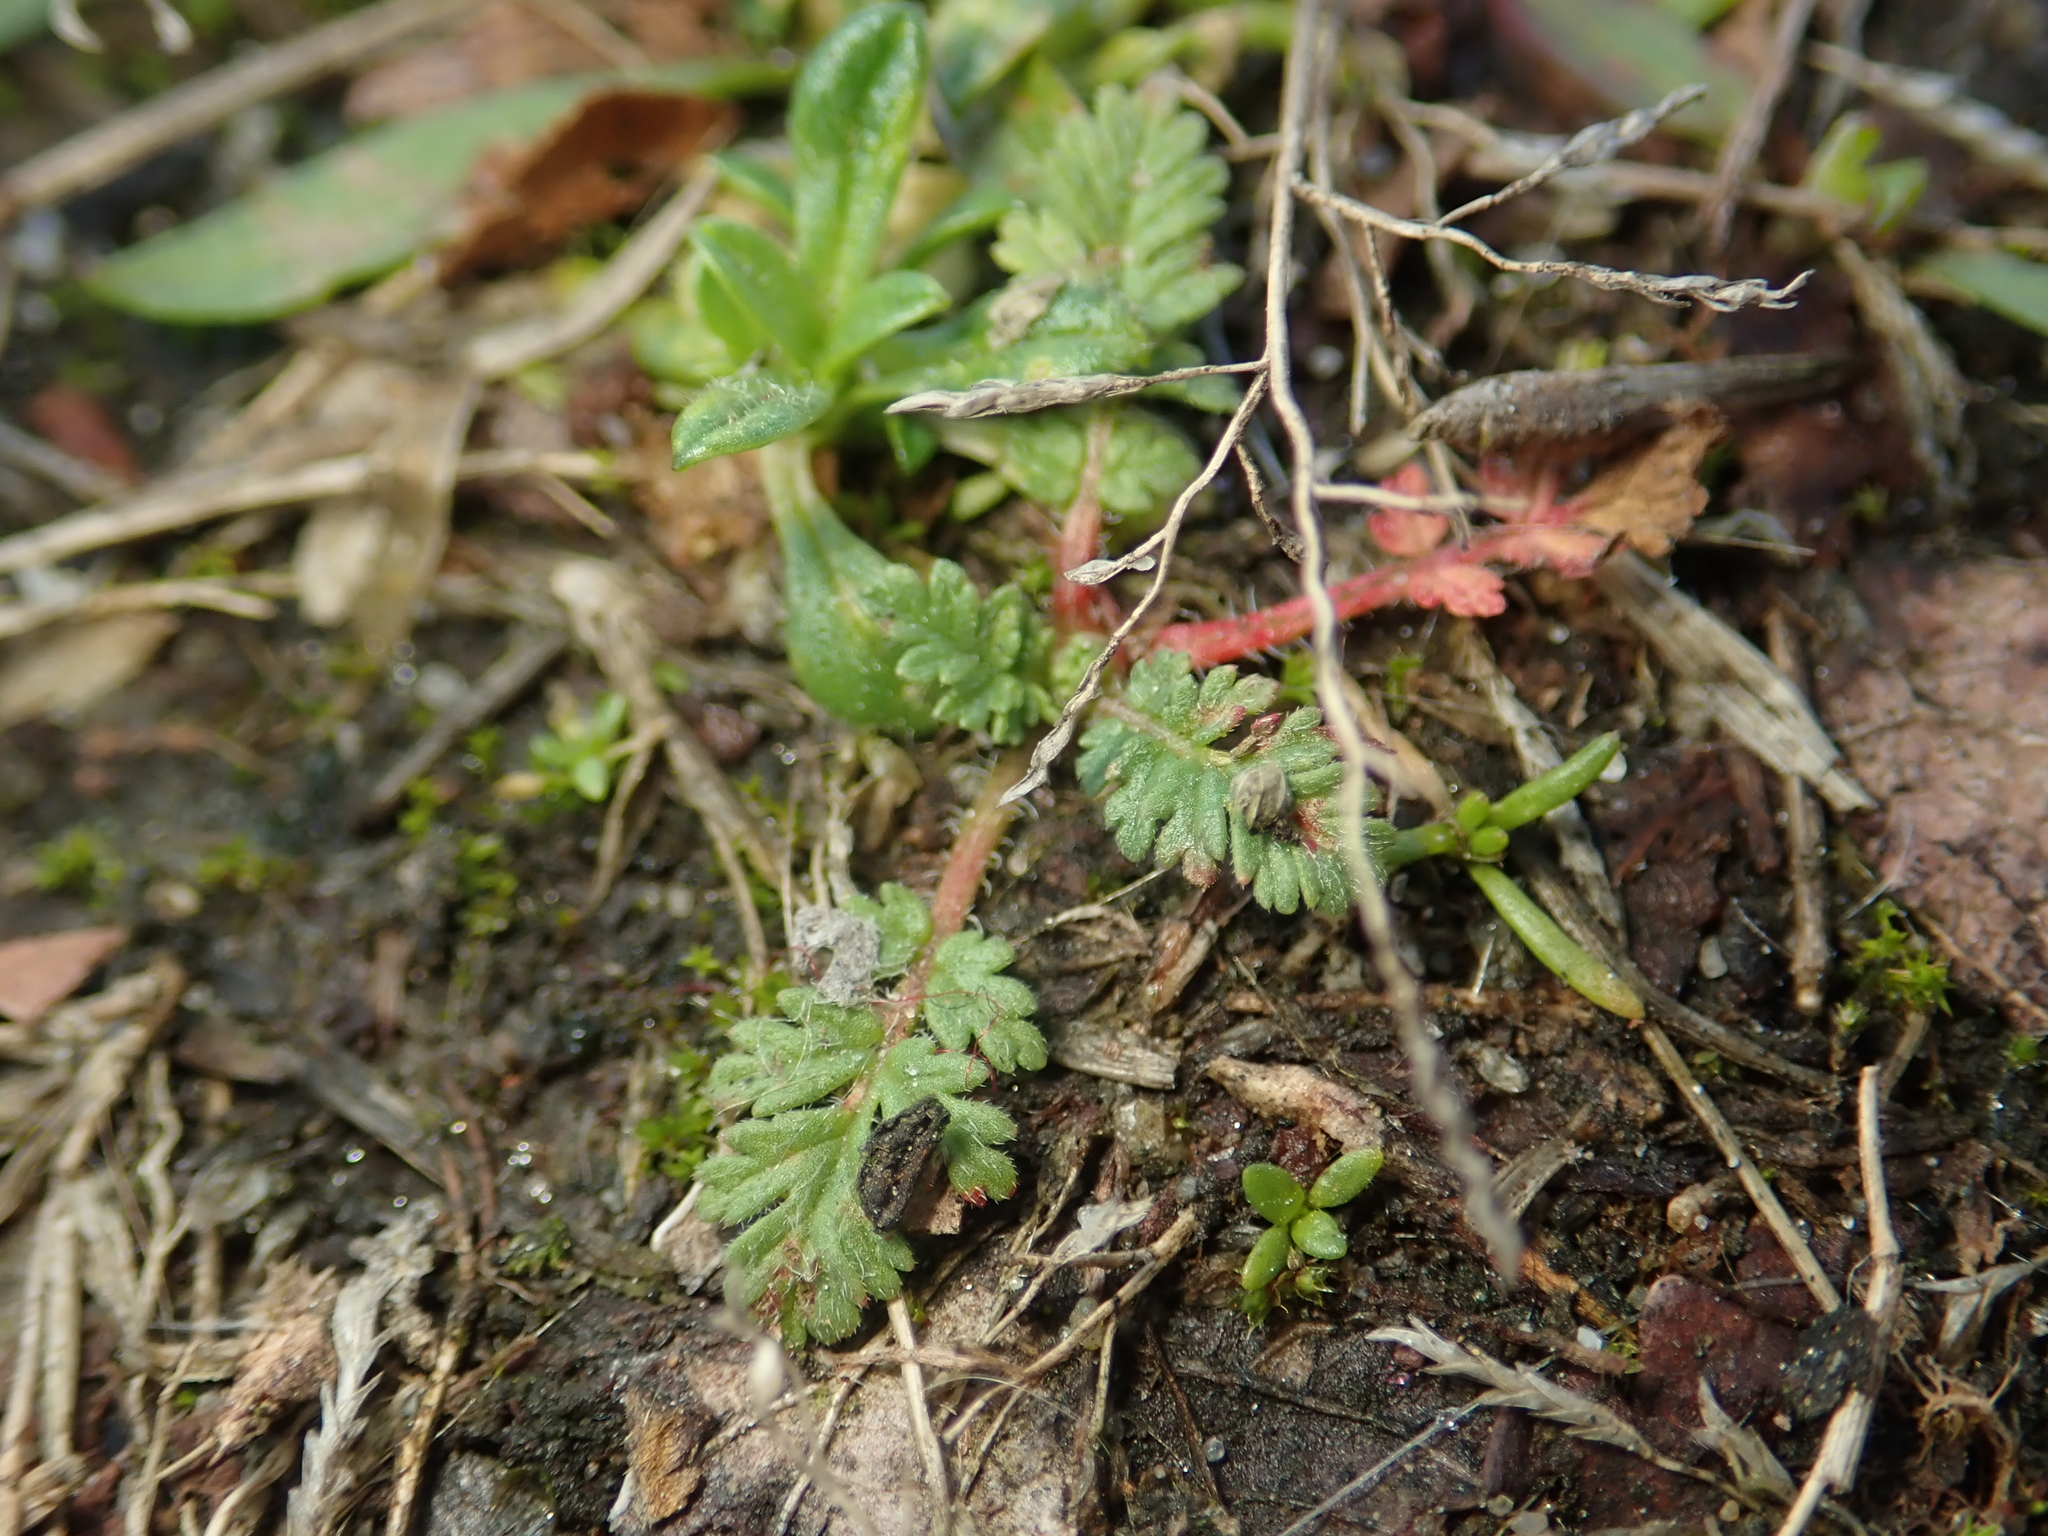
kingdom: Plantae
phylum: Tracheophyta
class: Magnoliopsida
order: Geraniales
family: Geraniaceae
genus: Erodium
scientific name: Erodium cicutarium
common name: Common stork's-bill
